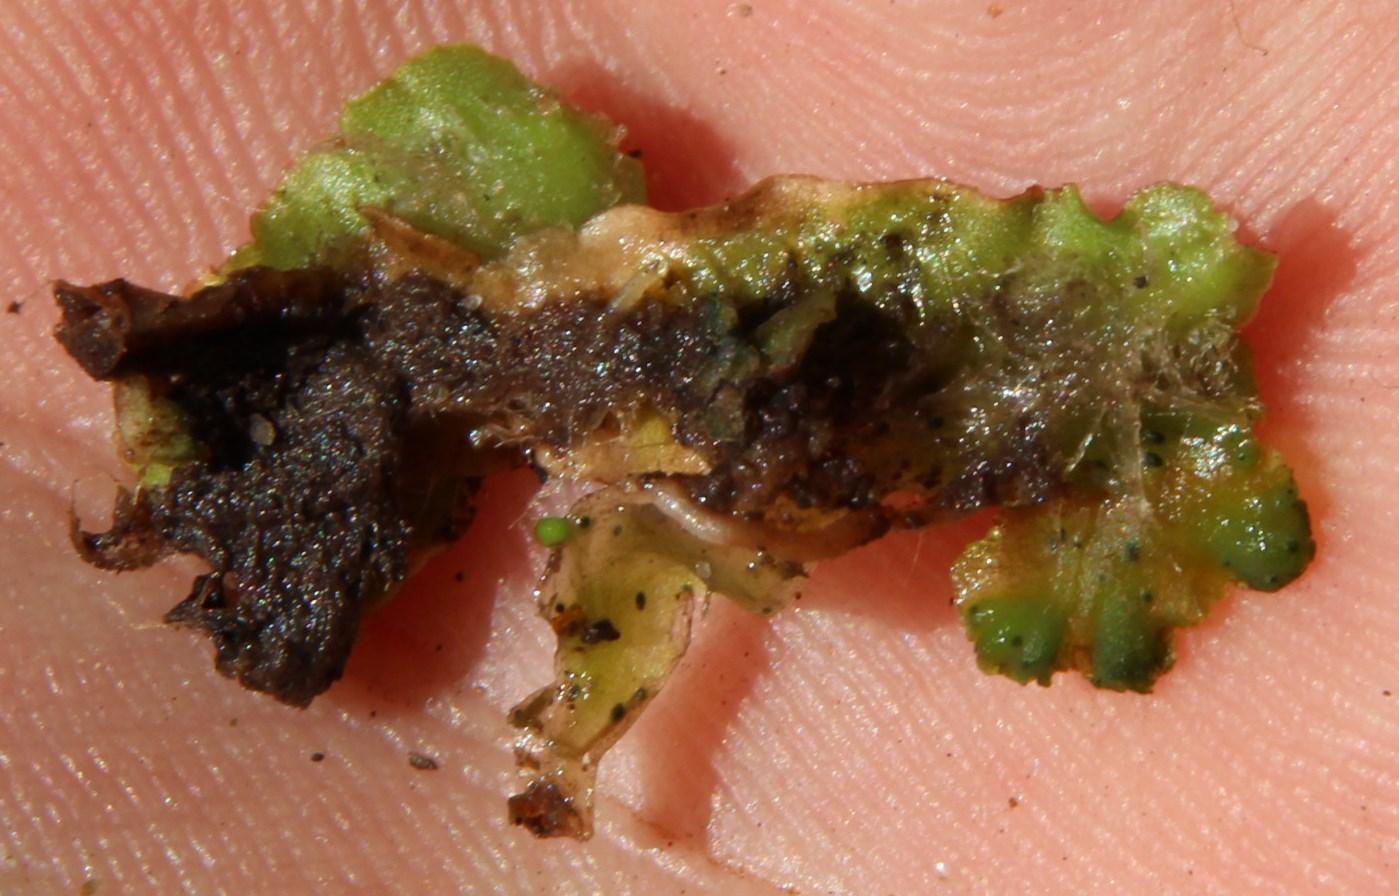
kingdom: Plantae
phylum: Marchantiophyta
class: Marchantiopsida
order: Lunulariales
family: Lunulariaceae
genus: Lunularia
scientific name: Lunularia cruciata
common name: Crescent-cup liverwort
